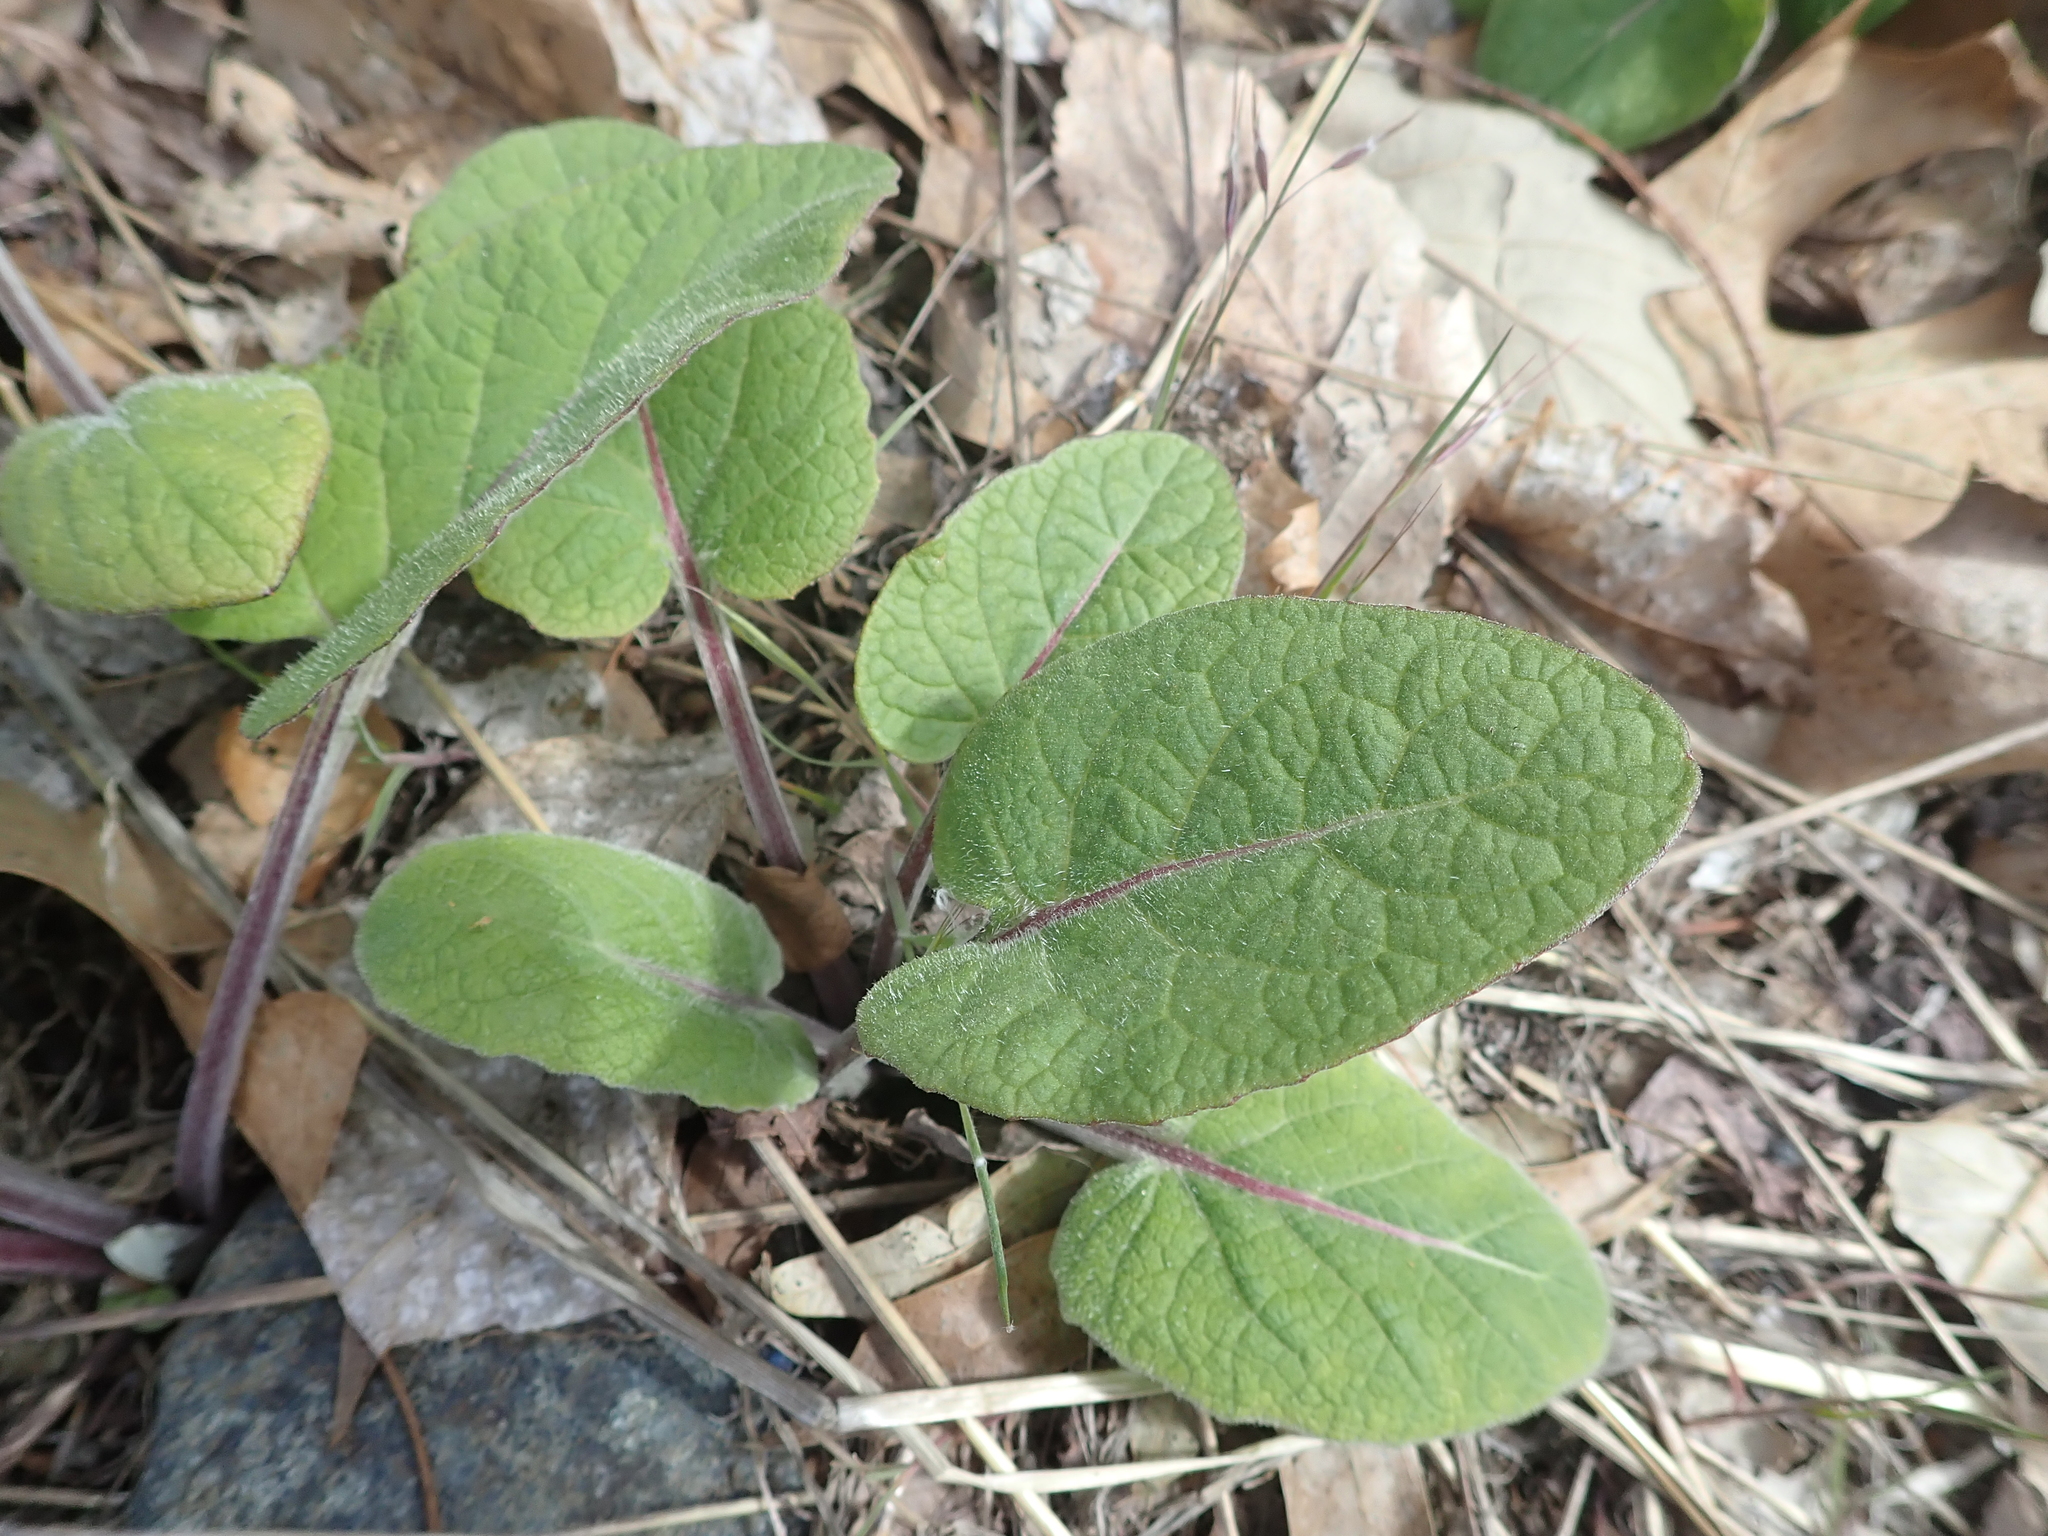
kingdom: Plantae
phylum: Tracheophyta
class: Magnoliopsida
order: Asterales
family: Asteraceae
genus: Arctium
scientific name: Arctium
